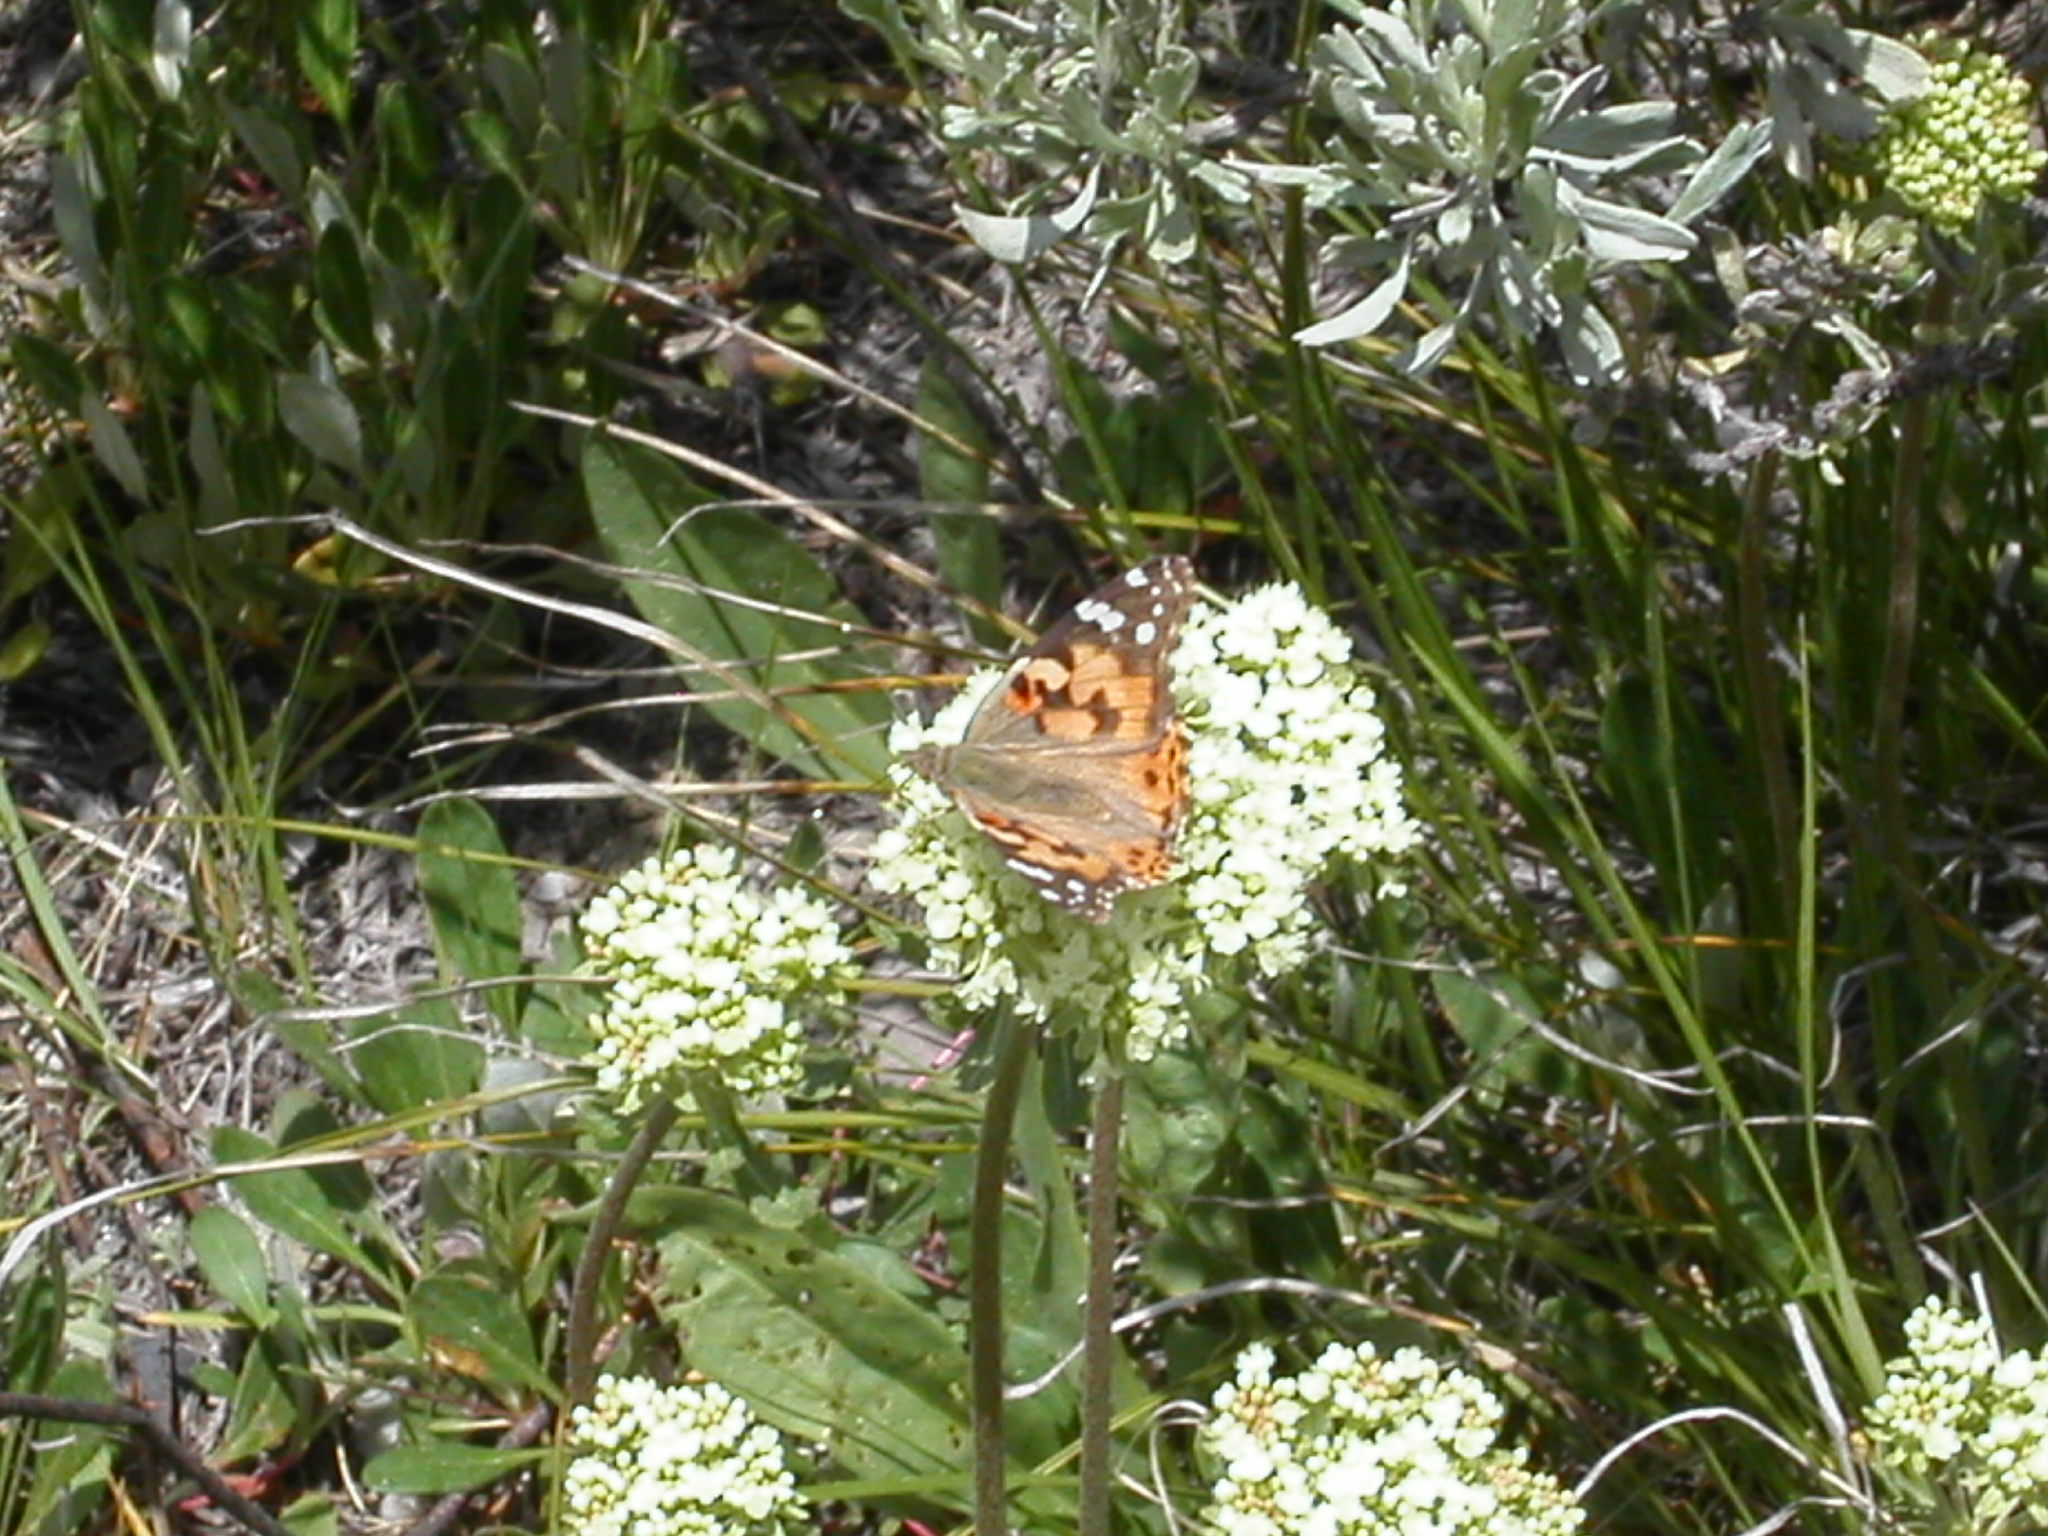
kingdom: Animalia
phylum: Arthropoda
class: Insecta
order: Lepidoptera
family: Nymphalidae
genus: Vanessa
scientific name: Vanessa cardui
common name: Painted lady
